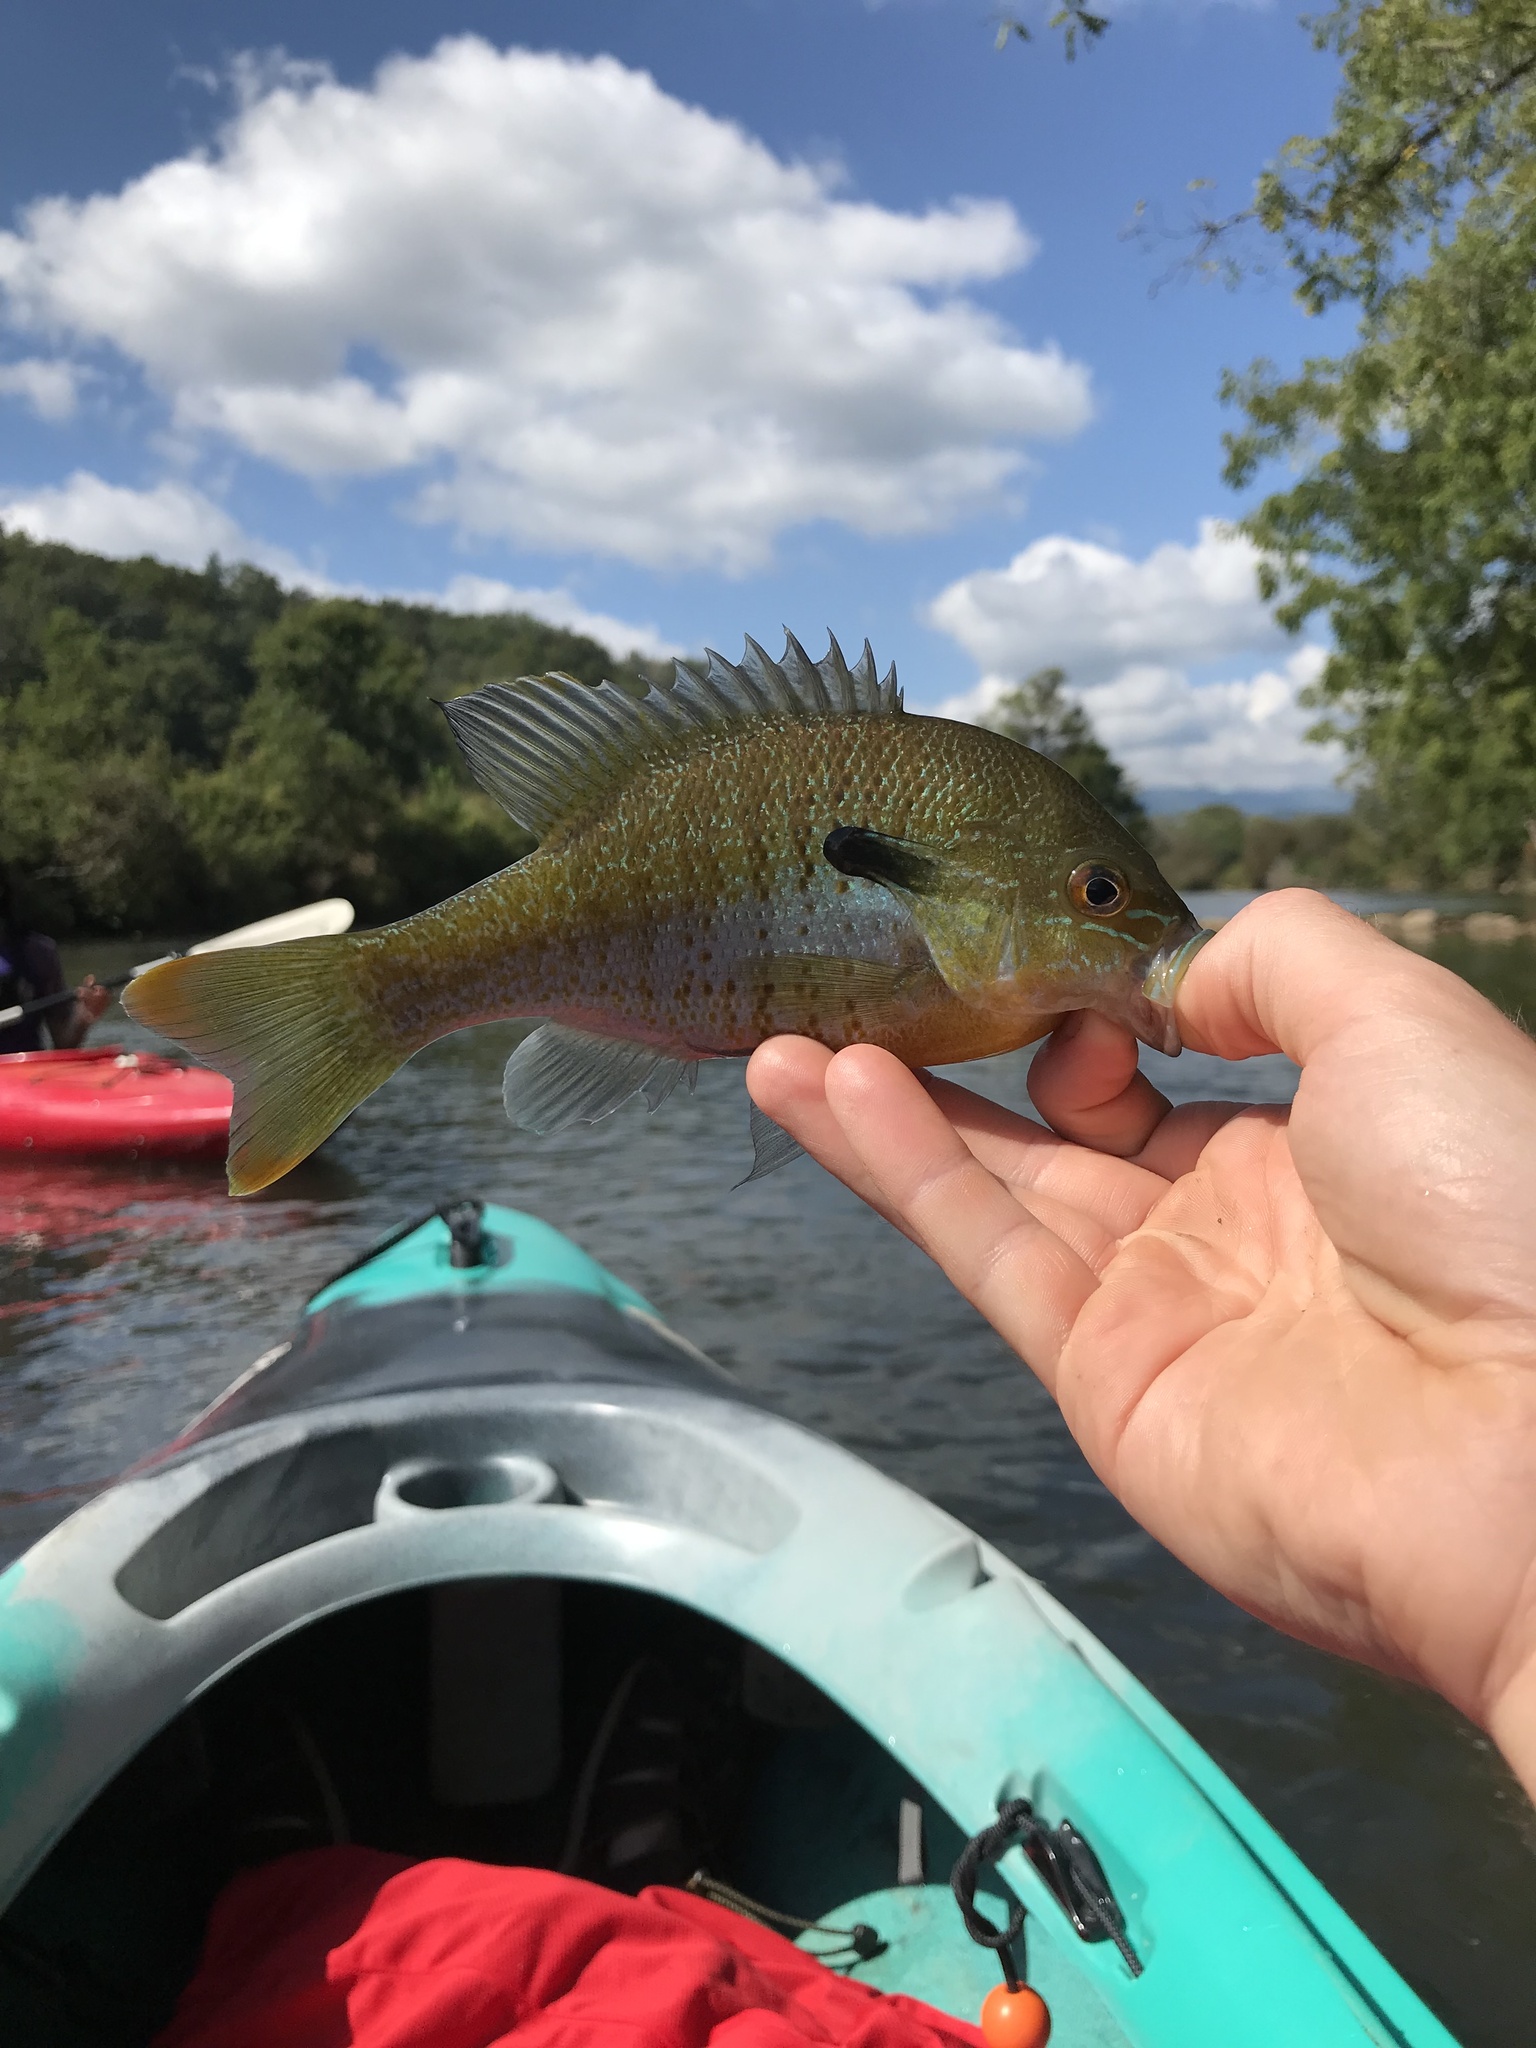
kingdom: Animalia
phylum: Chordata
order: Perciformes
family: Centrarchidae
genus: Lepomis
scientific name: Lepomis auritus
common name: Redbreast sunfish
